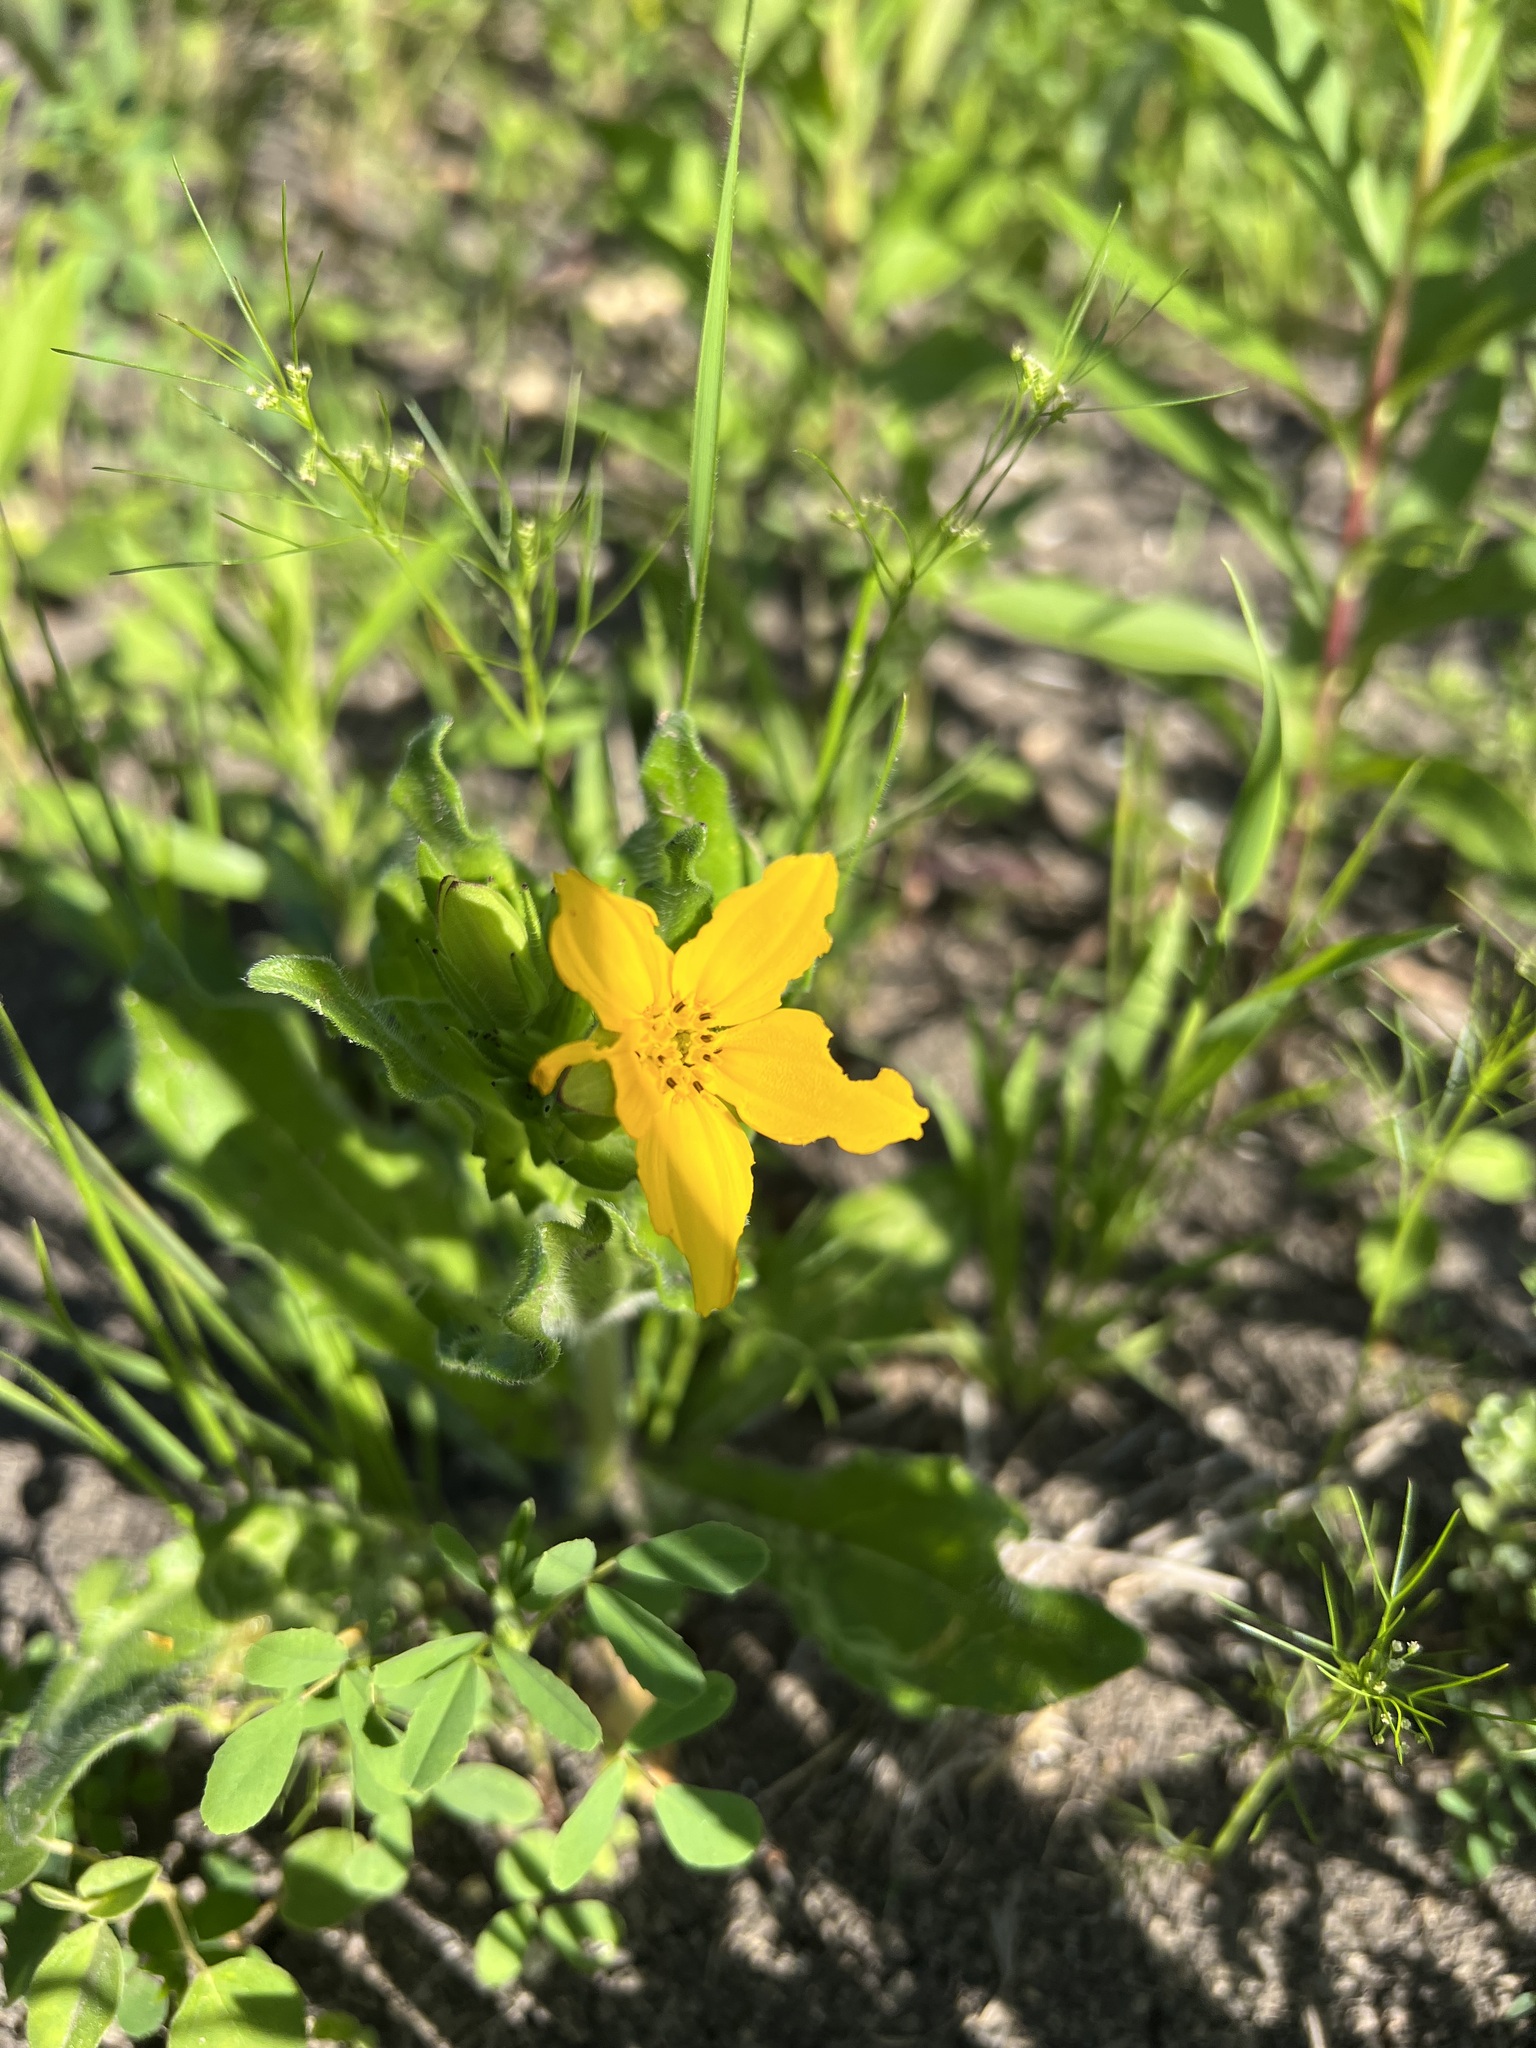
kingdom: Plantae
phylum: Tracheophyta
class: Magnoliopsida
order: Asterales
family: Asteraceae
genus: Lindheimera
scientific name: Lindheimera texana
